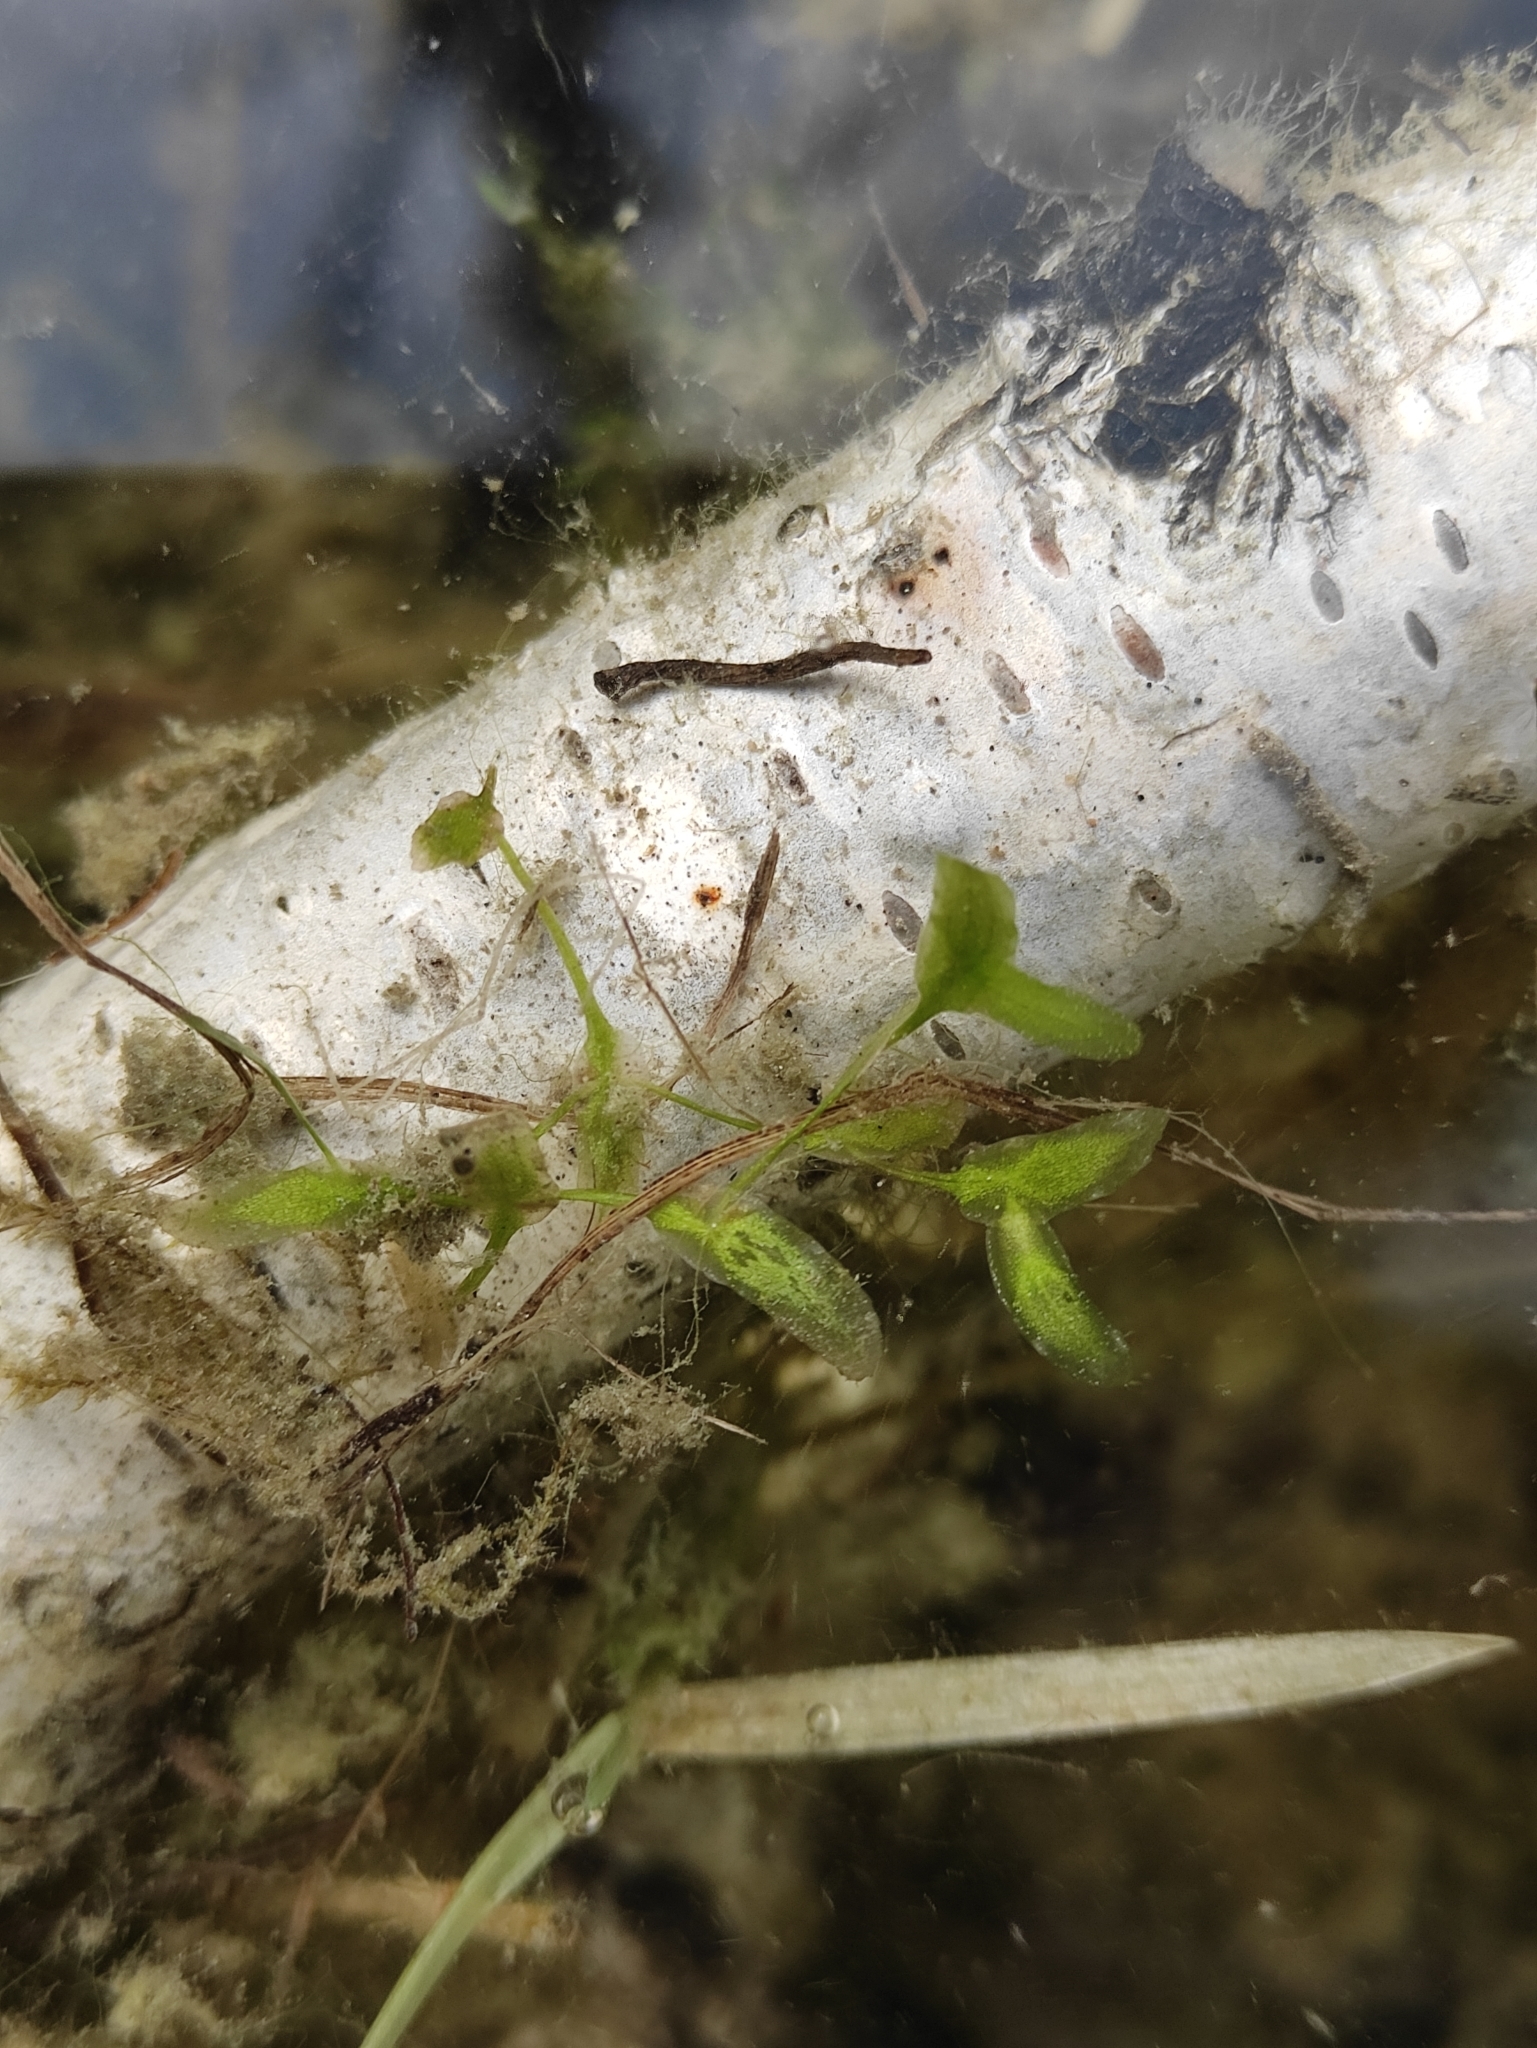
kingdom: Plantae
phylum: Tracheophyta
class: Liliopsida
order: Alismatales
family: Araceae
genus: Lemna
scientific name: Lemna trisulca
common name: Ivy-leaved duckweed
